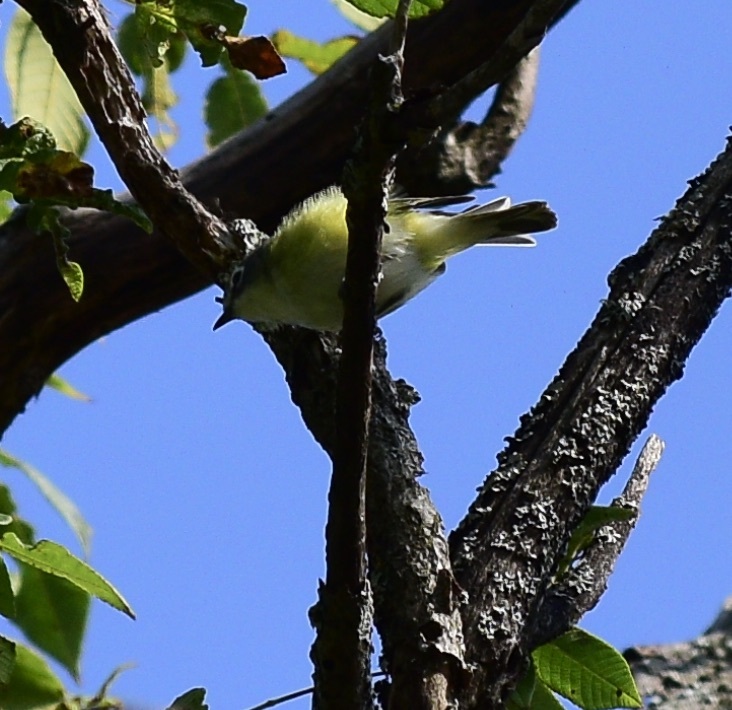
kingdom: Animalia
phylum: Chordata
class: Aves
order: Passeriformes
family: Vireonidae
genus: Vireo
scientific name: Vireo solitarius
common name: Blue-headed vireo
